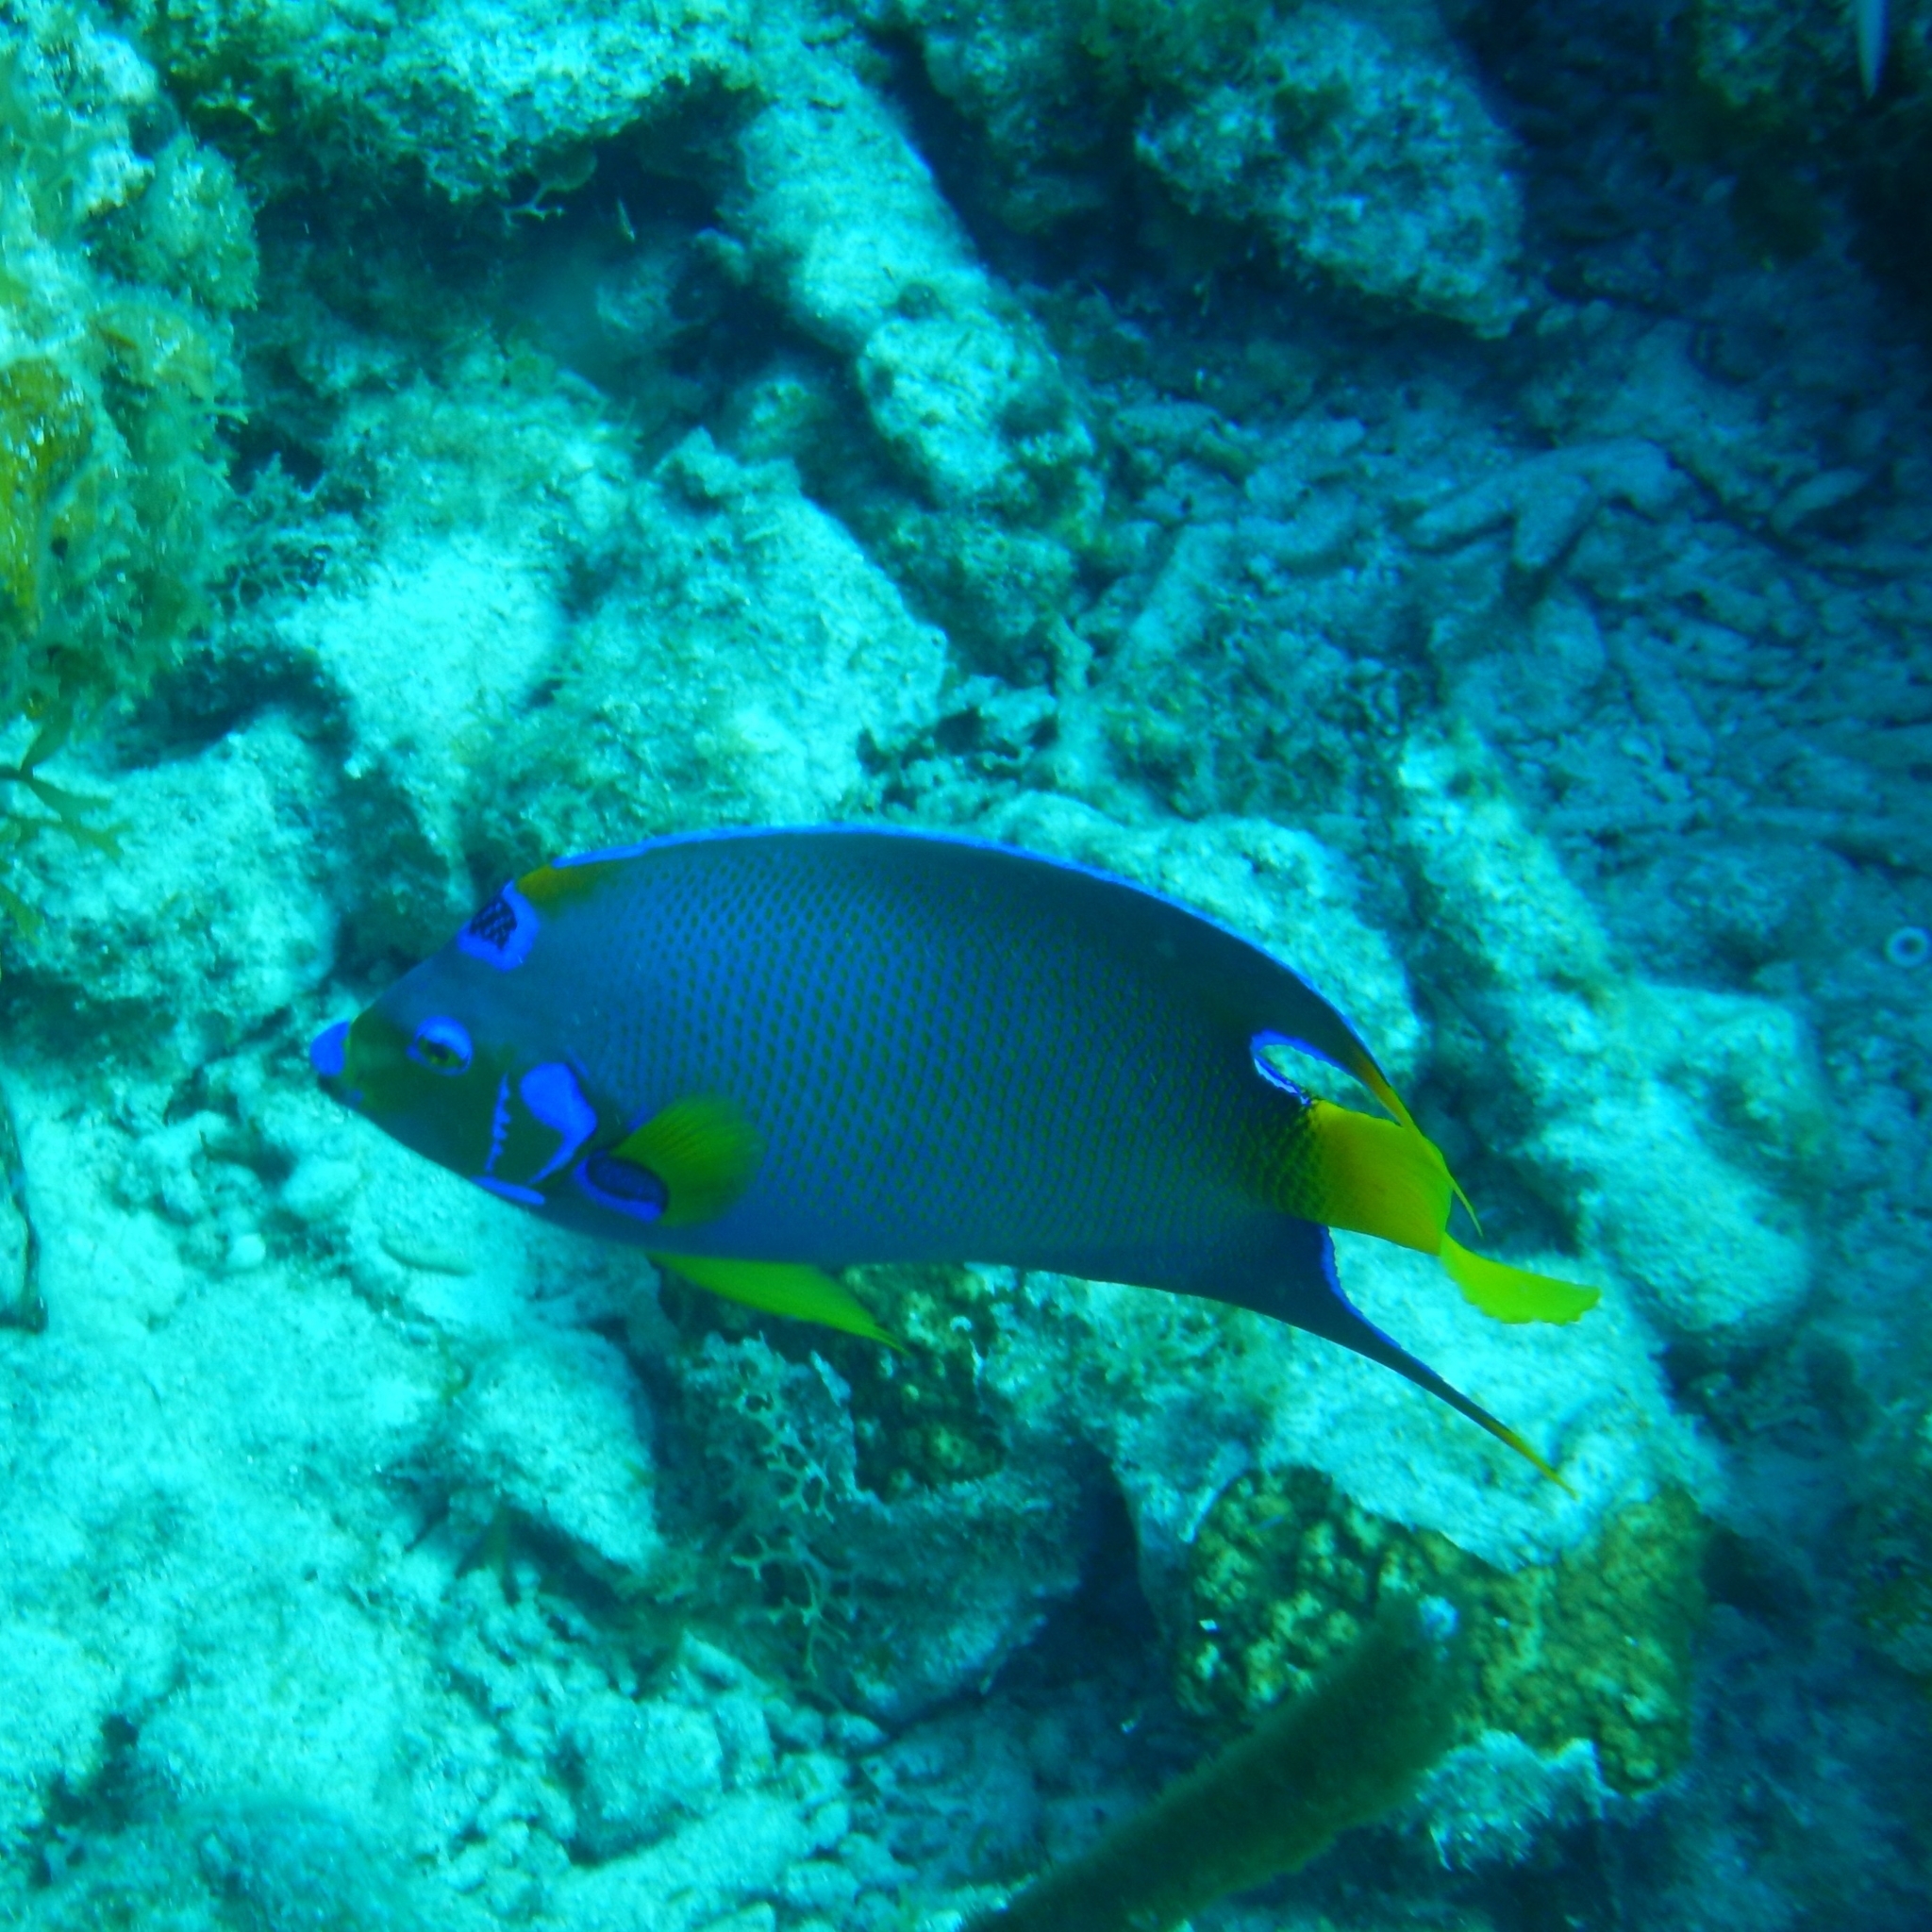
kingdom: Animalia
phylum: Chordata
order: Perciformes
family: Pomacanthidae
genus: Holacanthus
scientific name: Holacanthus ciliaris
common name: Queen angelfish
